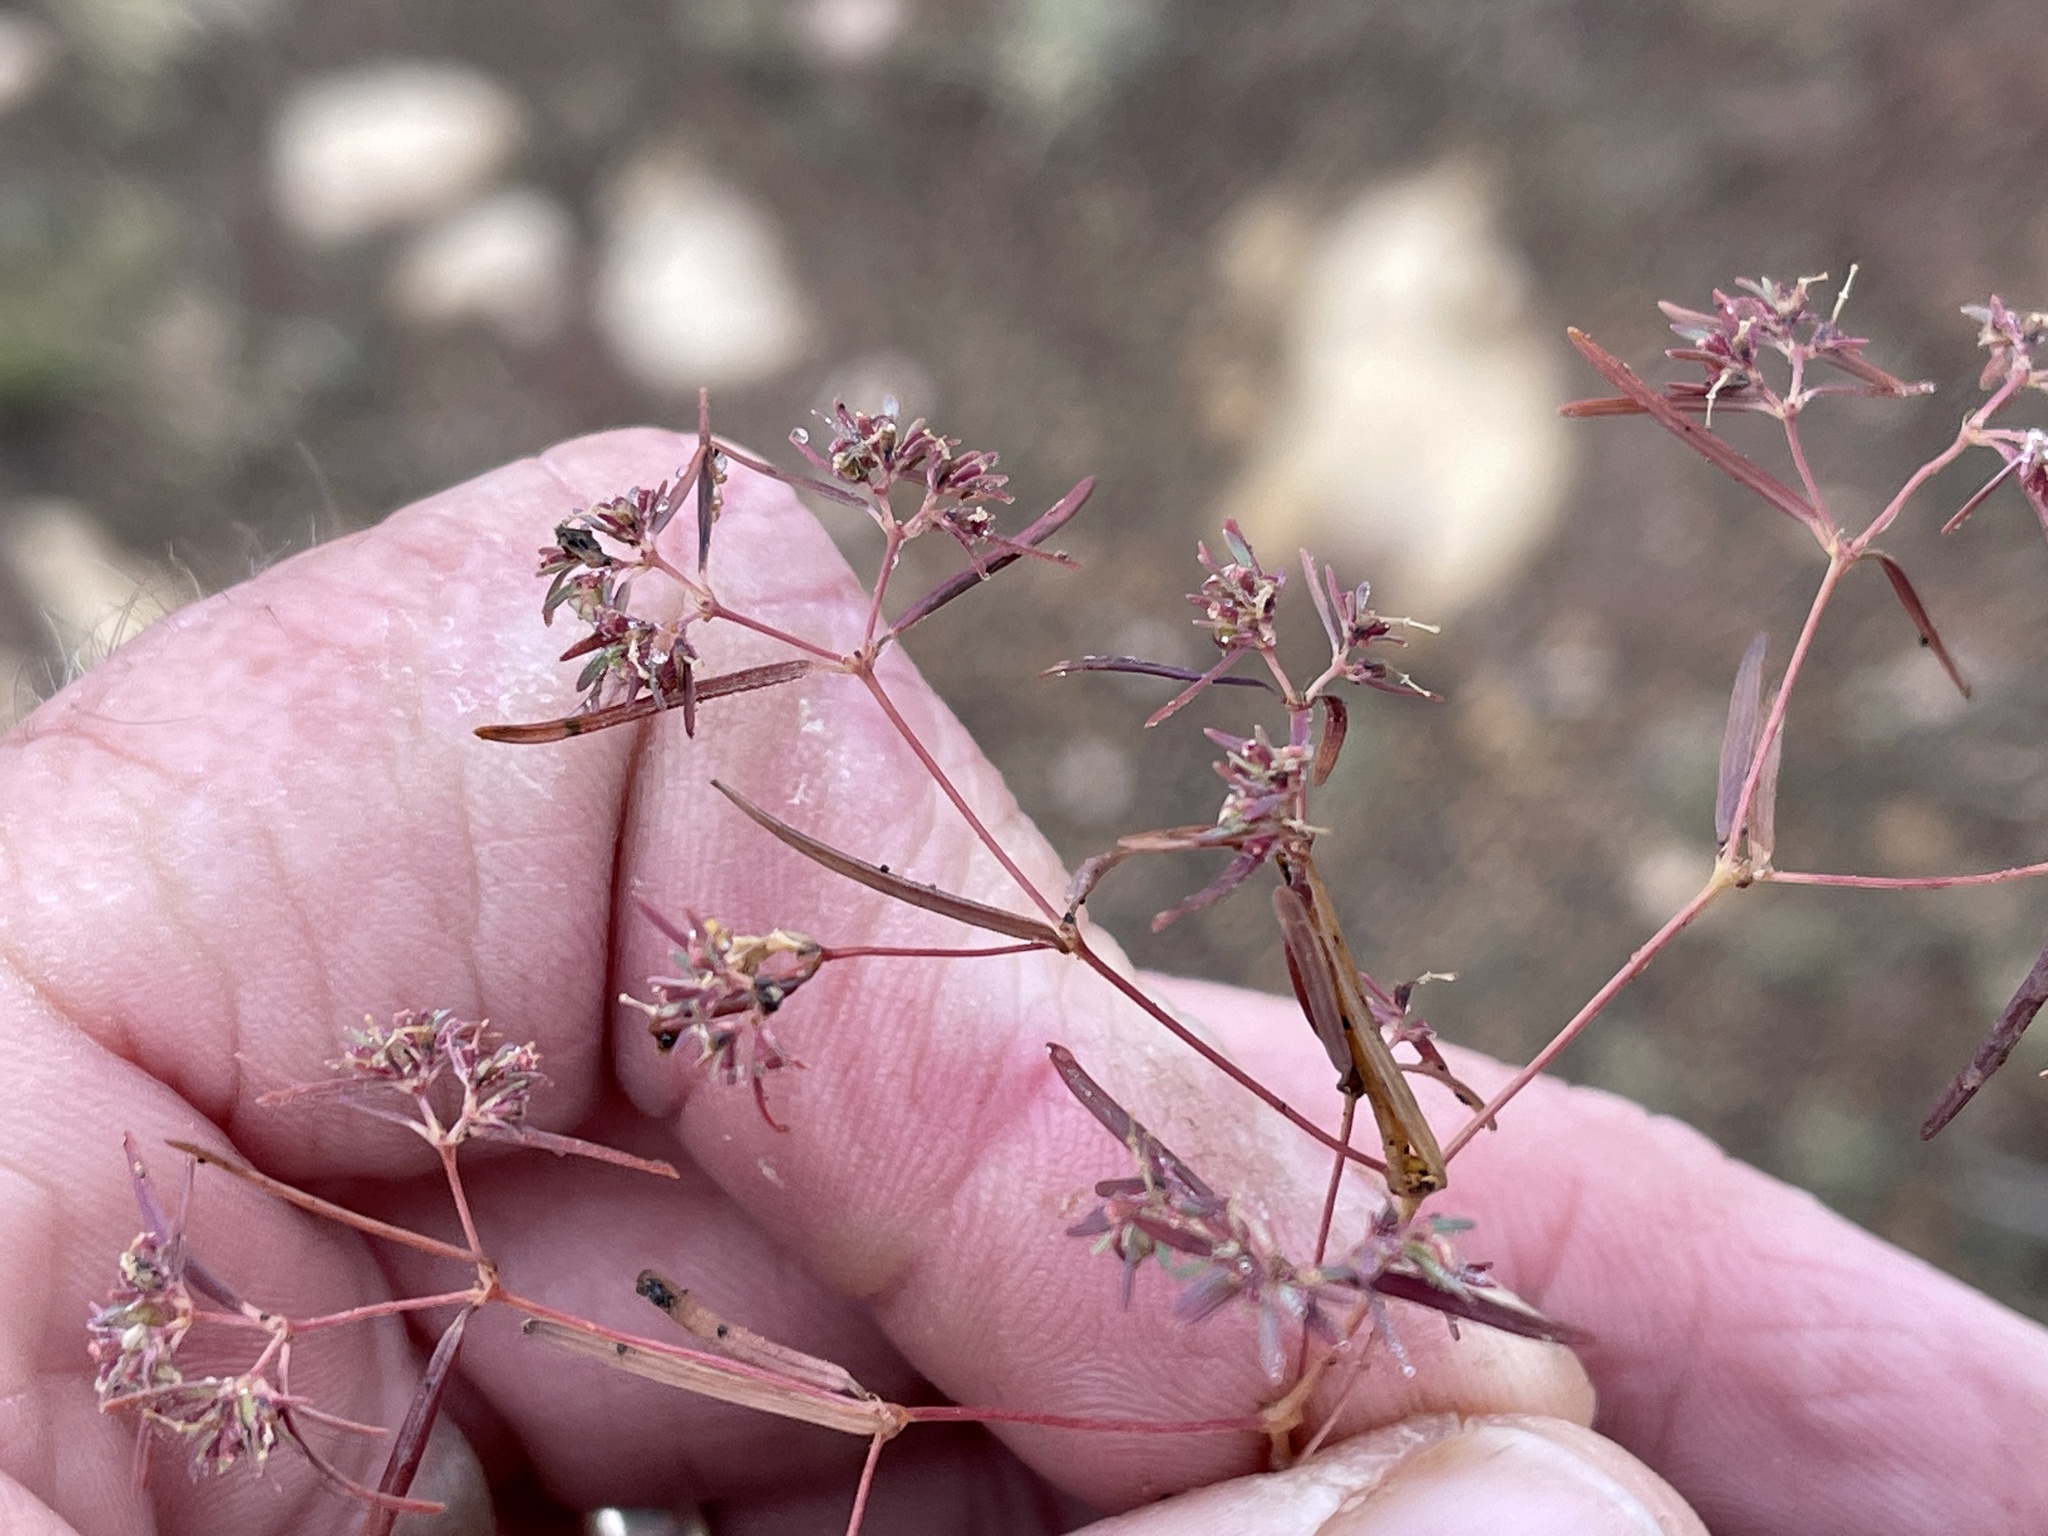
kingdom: Plantae
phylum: Tracheophyta
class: Magnoliopsida
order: Malpighiales
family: Euphorbiaceae
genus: Euphorbia
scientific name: Euphorbia revoluta
